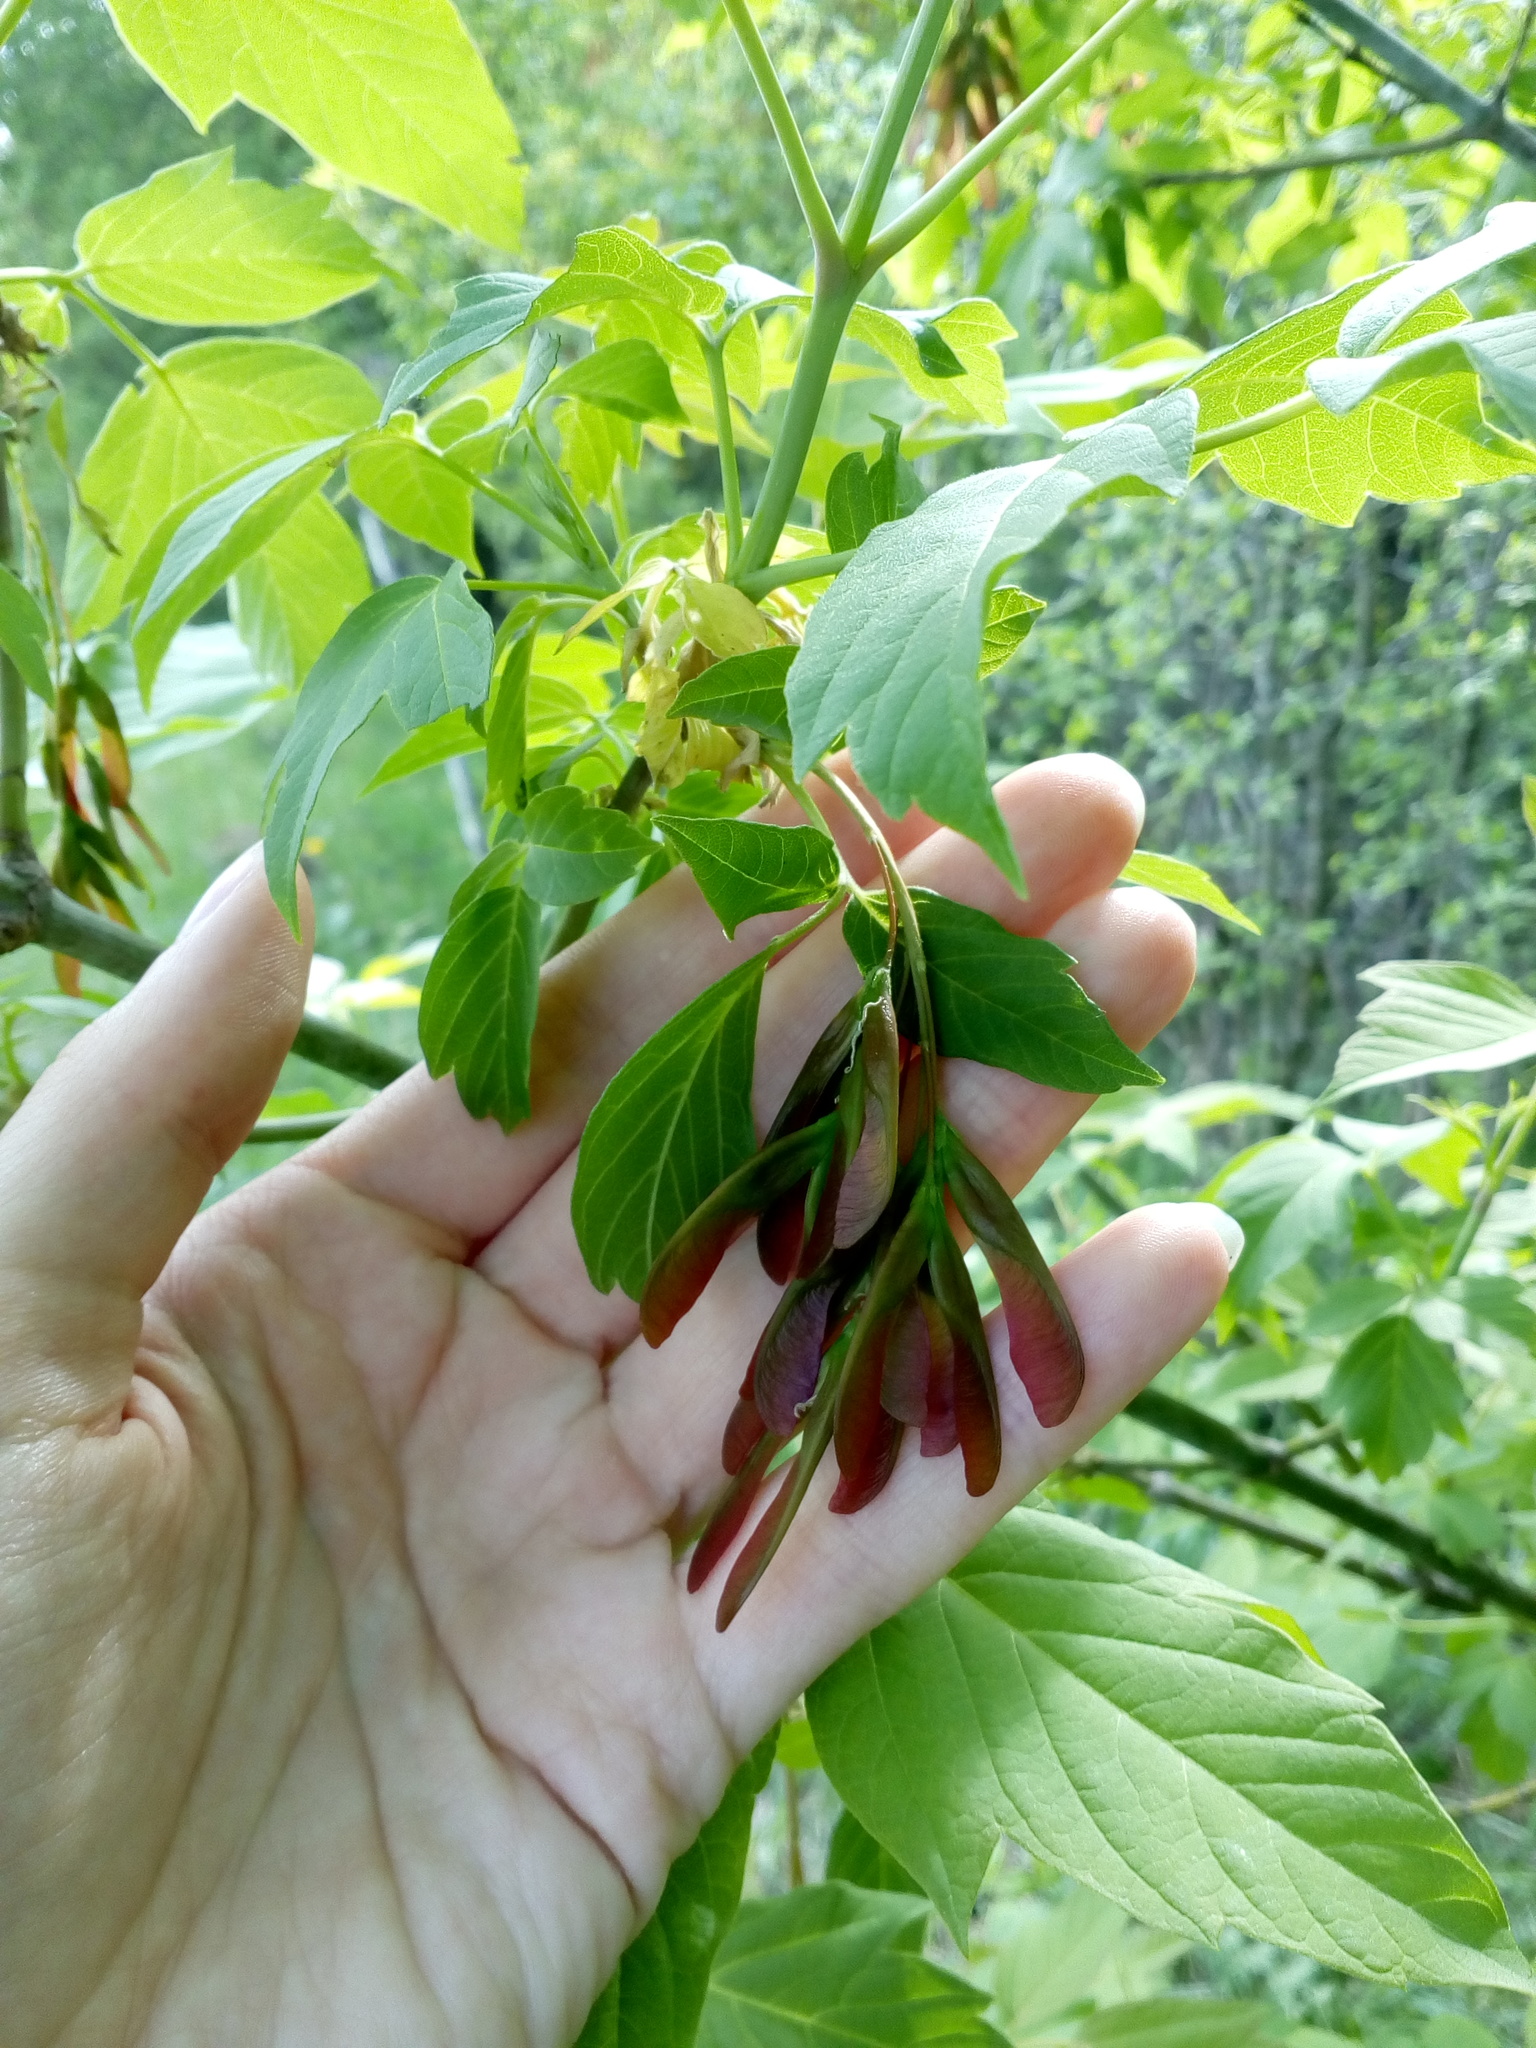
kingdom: Plantae
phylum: Tracheophyta
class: Magnoliopsida
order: Sapindales
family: Sapindaceae
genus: Acer
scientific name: Acer negundo
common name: Ashleaf maple
